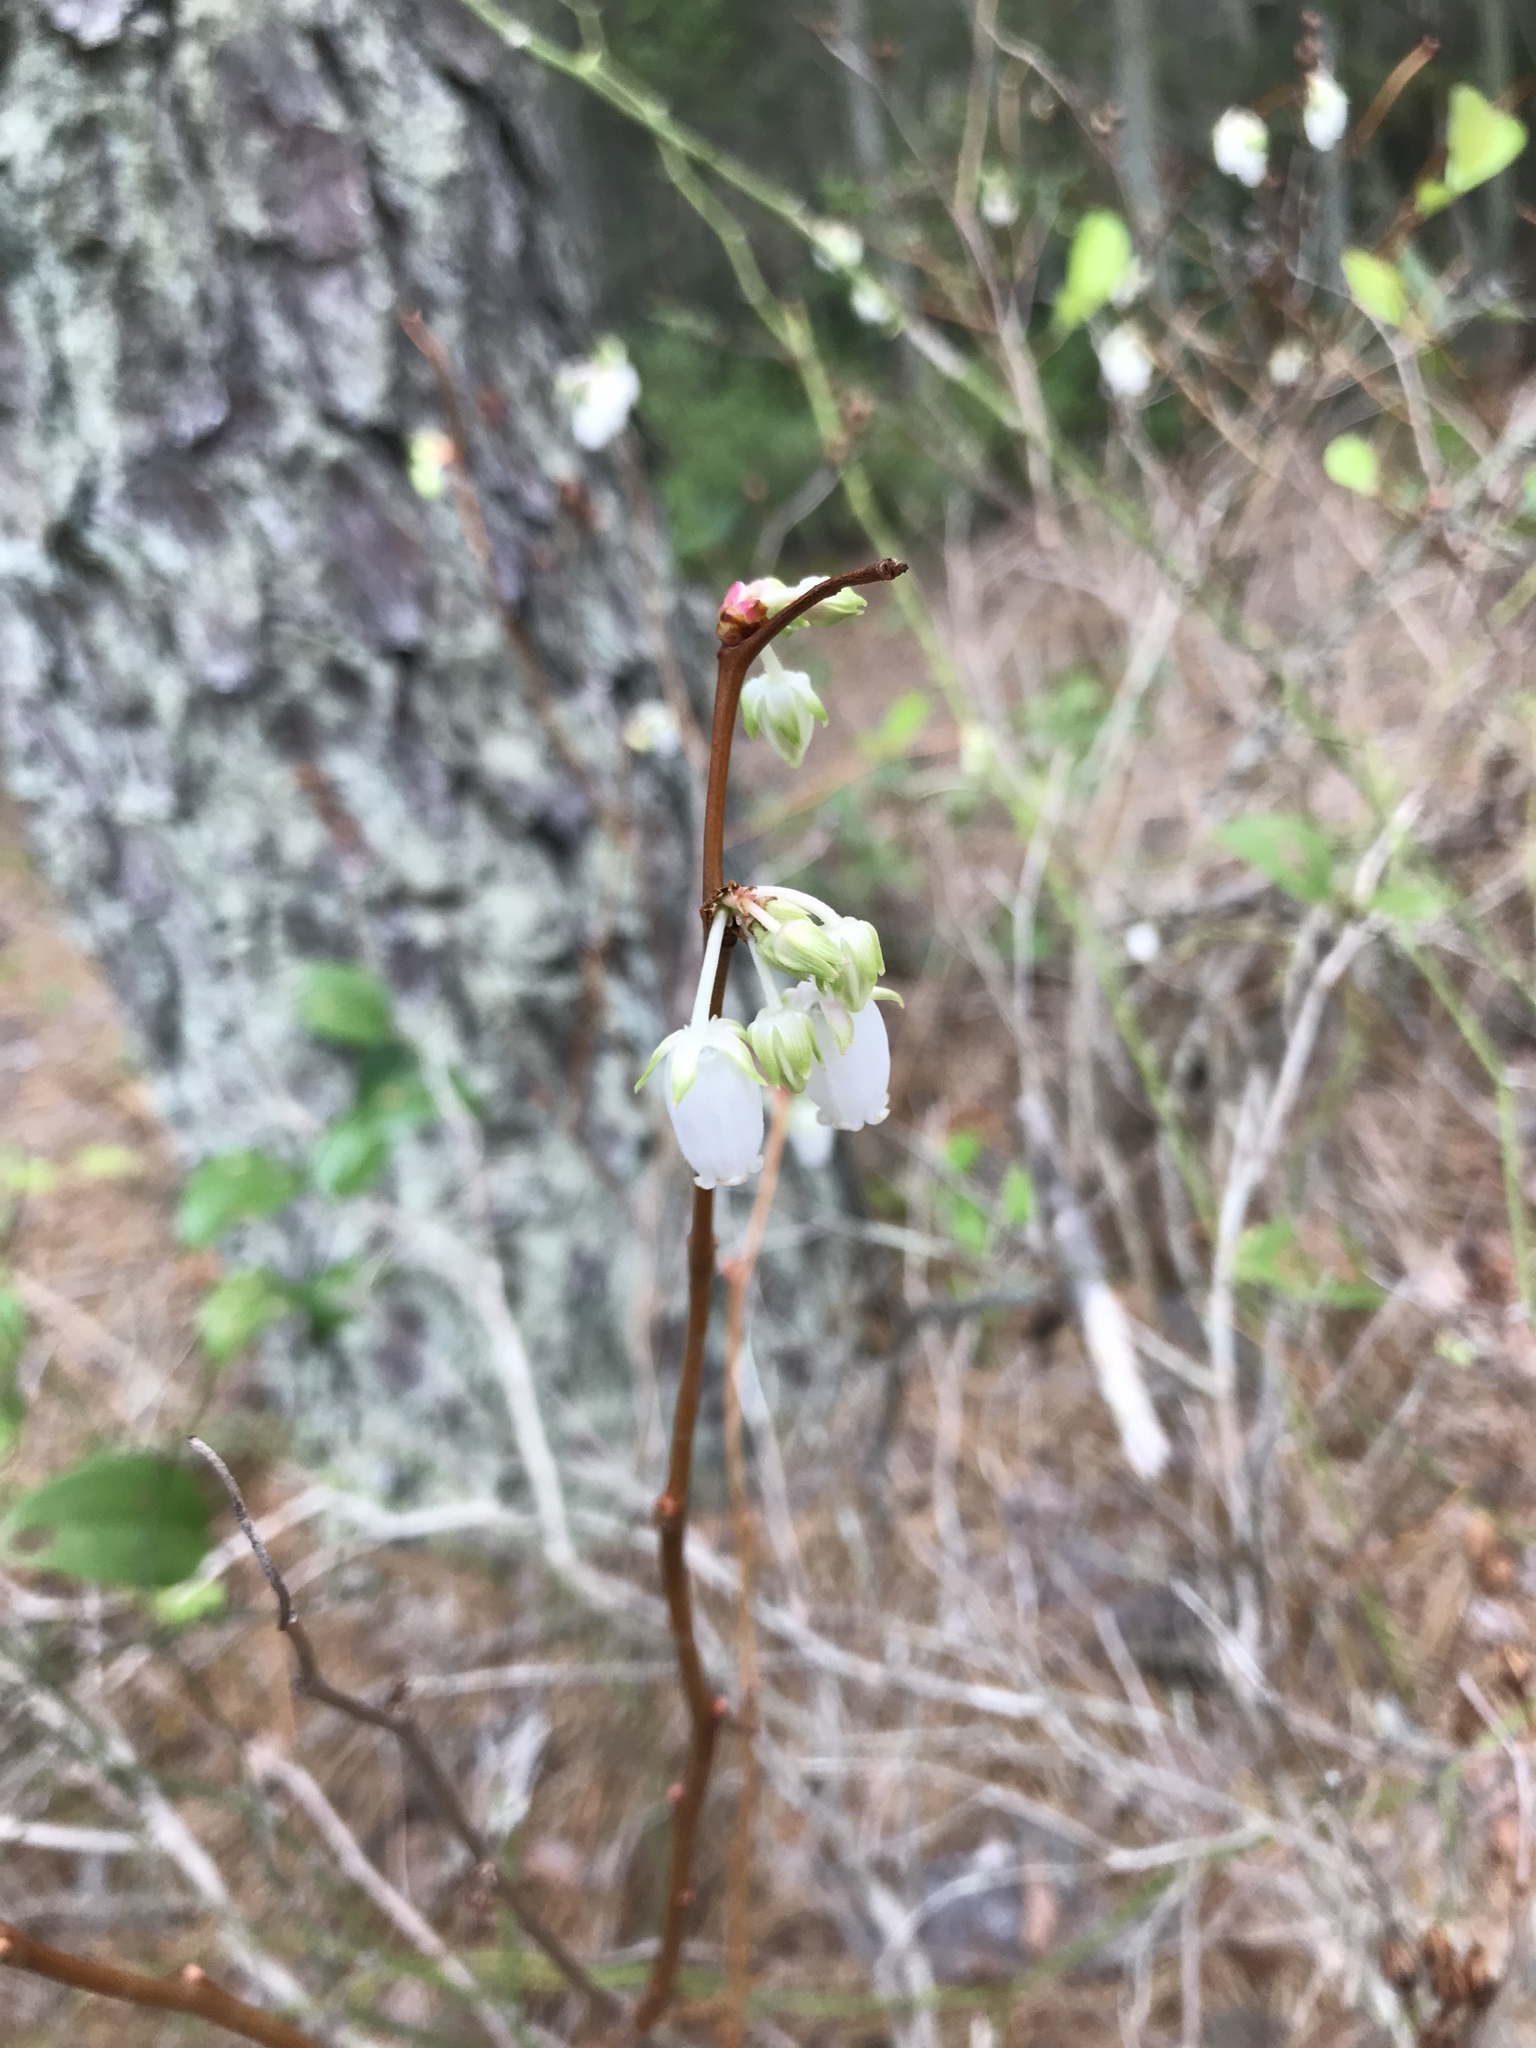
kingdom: Plantae
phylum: Tracheophyta
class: Magnoliopsida
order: Ericales
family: Ericaceae
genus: Lyonia
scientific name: Lyonia mariana
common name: Staggerbush
